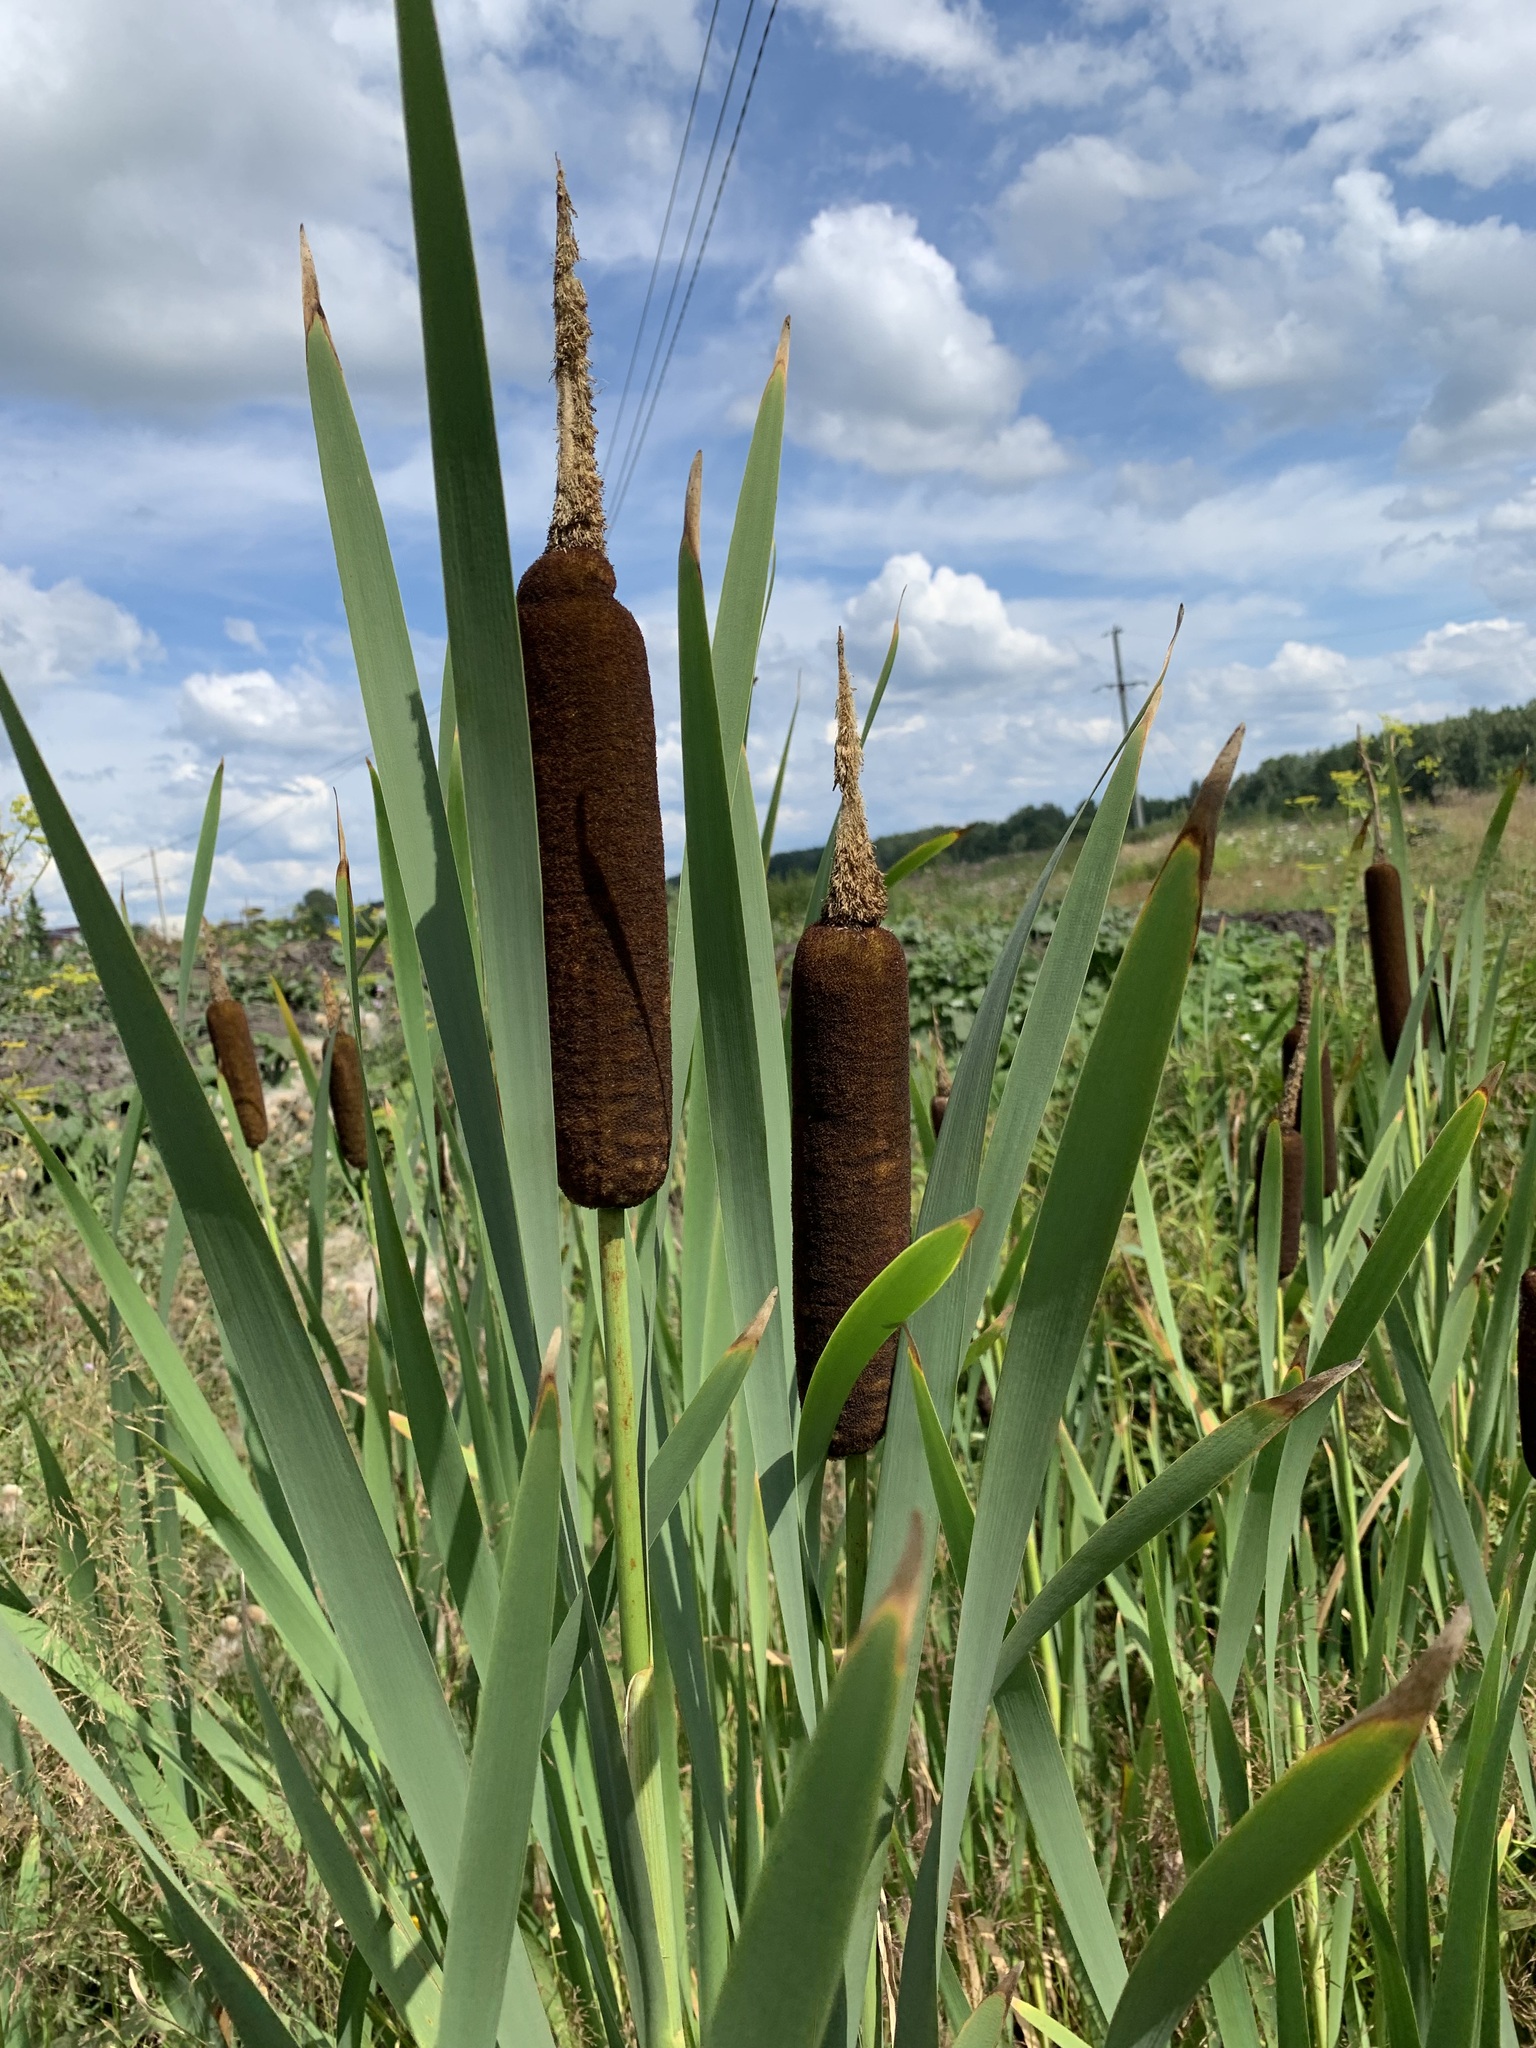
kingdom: Plantae
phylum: Tracheophyta
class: Liliopsida
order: Poales
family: Typhaceae
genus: Typha
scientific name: Typha latifolia
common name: Broadleaf cattail
